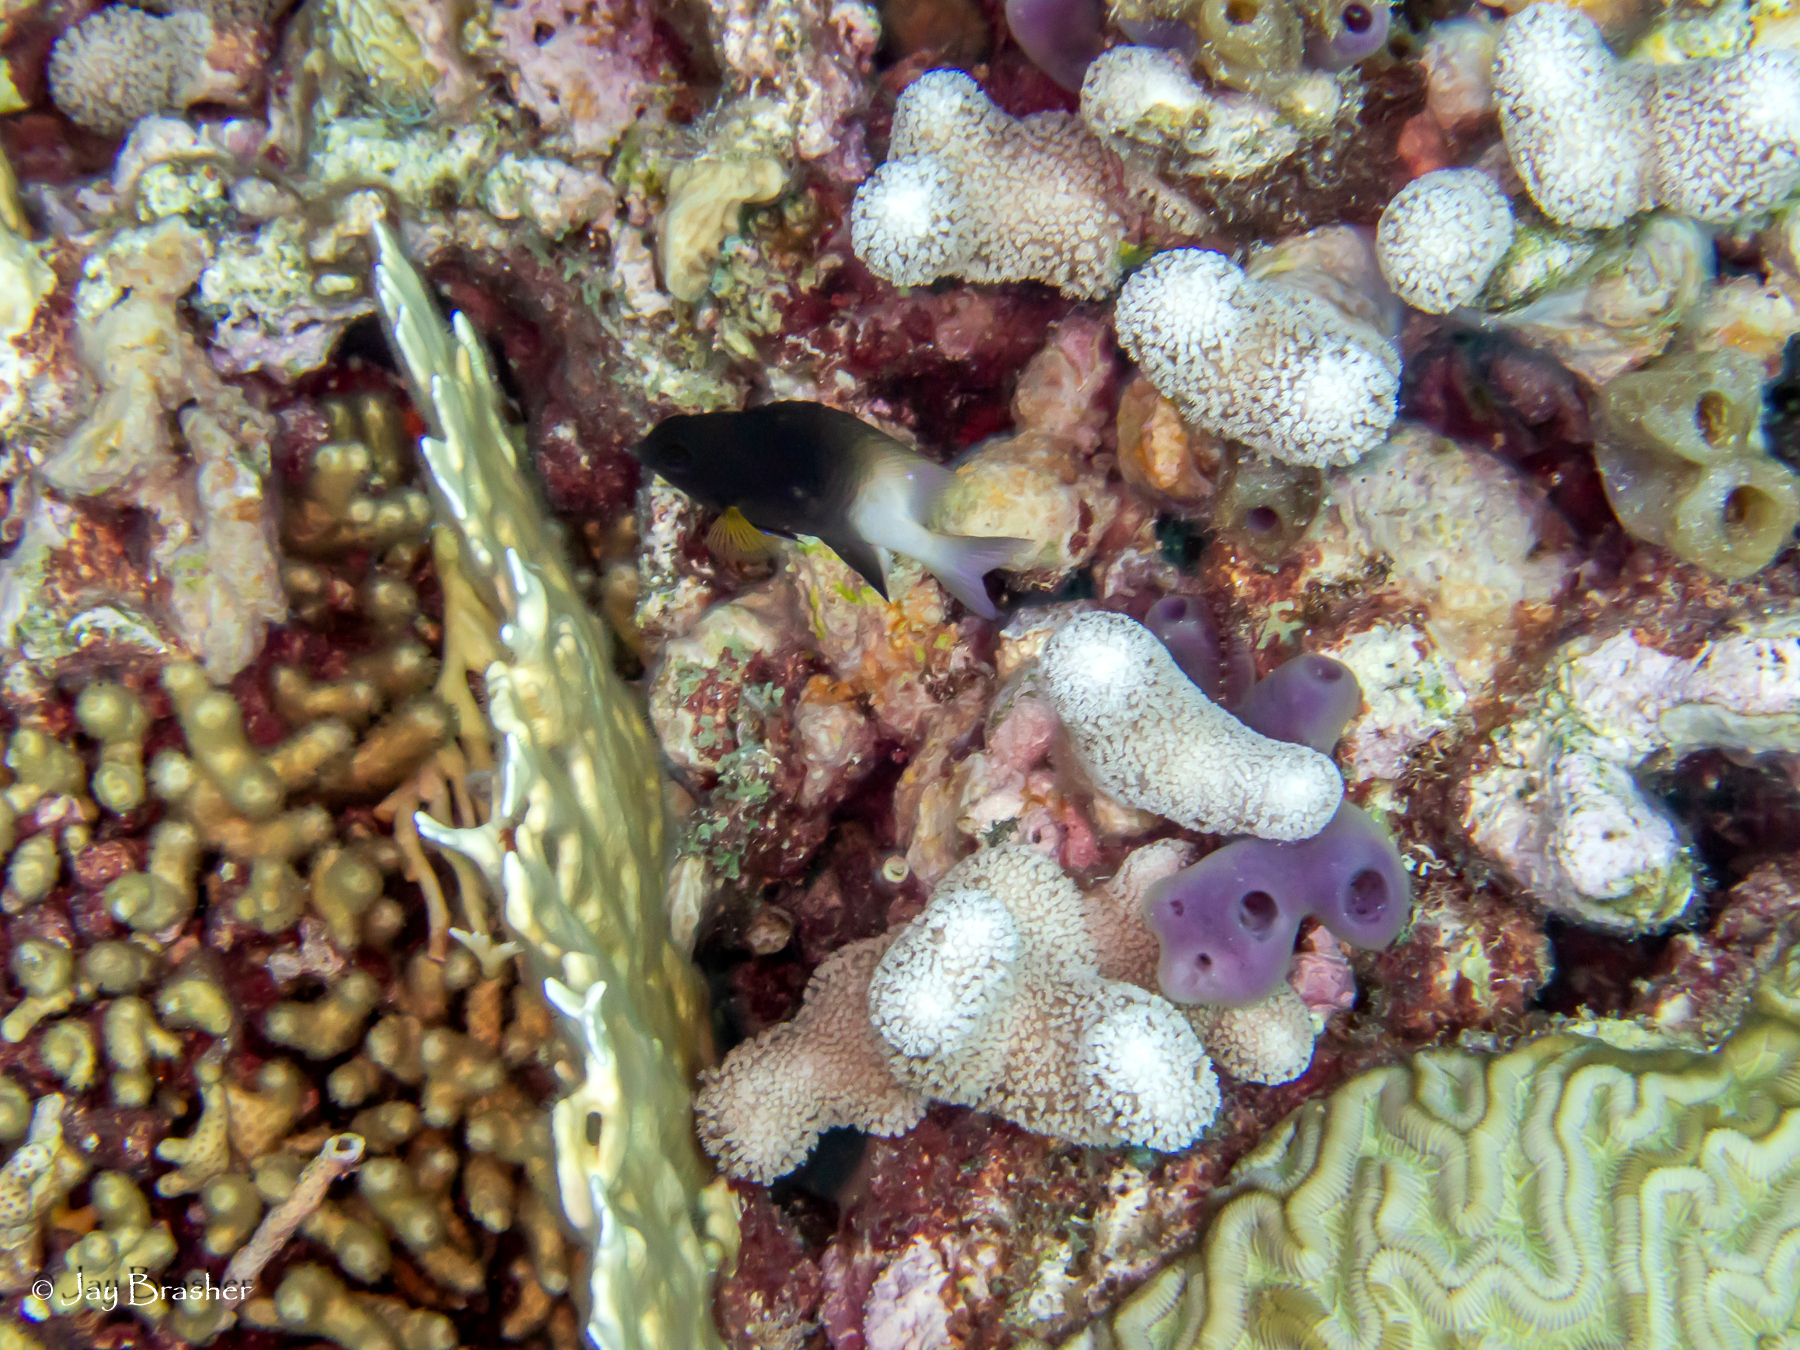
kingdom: Animalia
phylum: Porifera
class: Demospongiae
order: Haplosclerida
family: Callyspongiidae
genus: Callyspongia
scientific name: Callyspongia fallax
